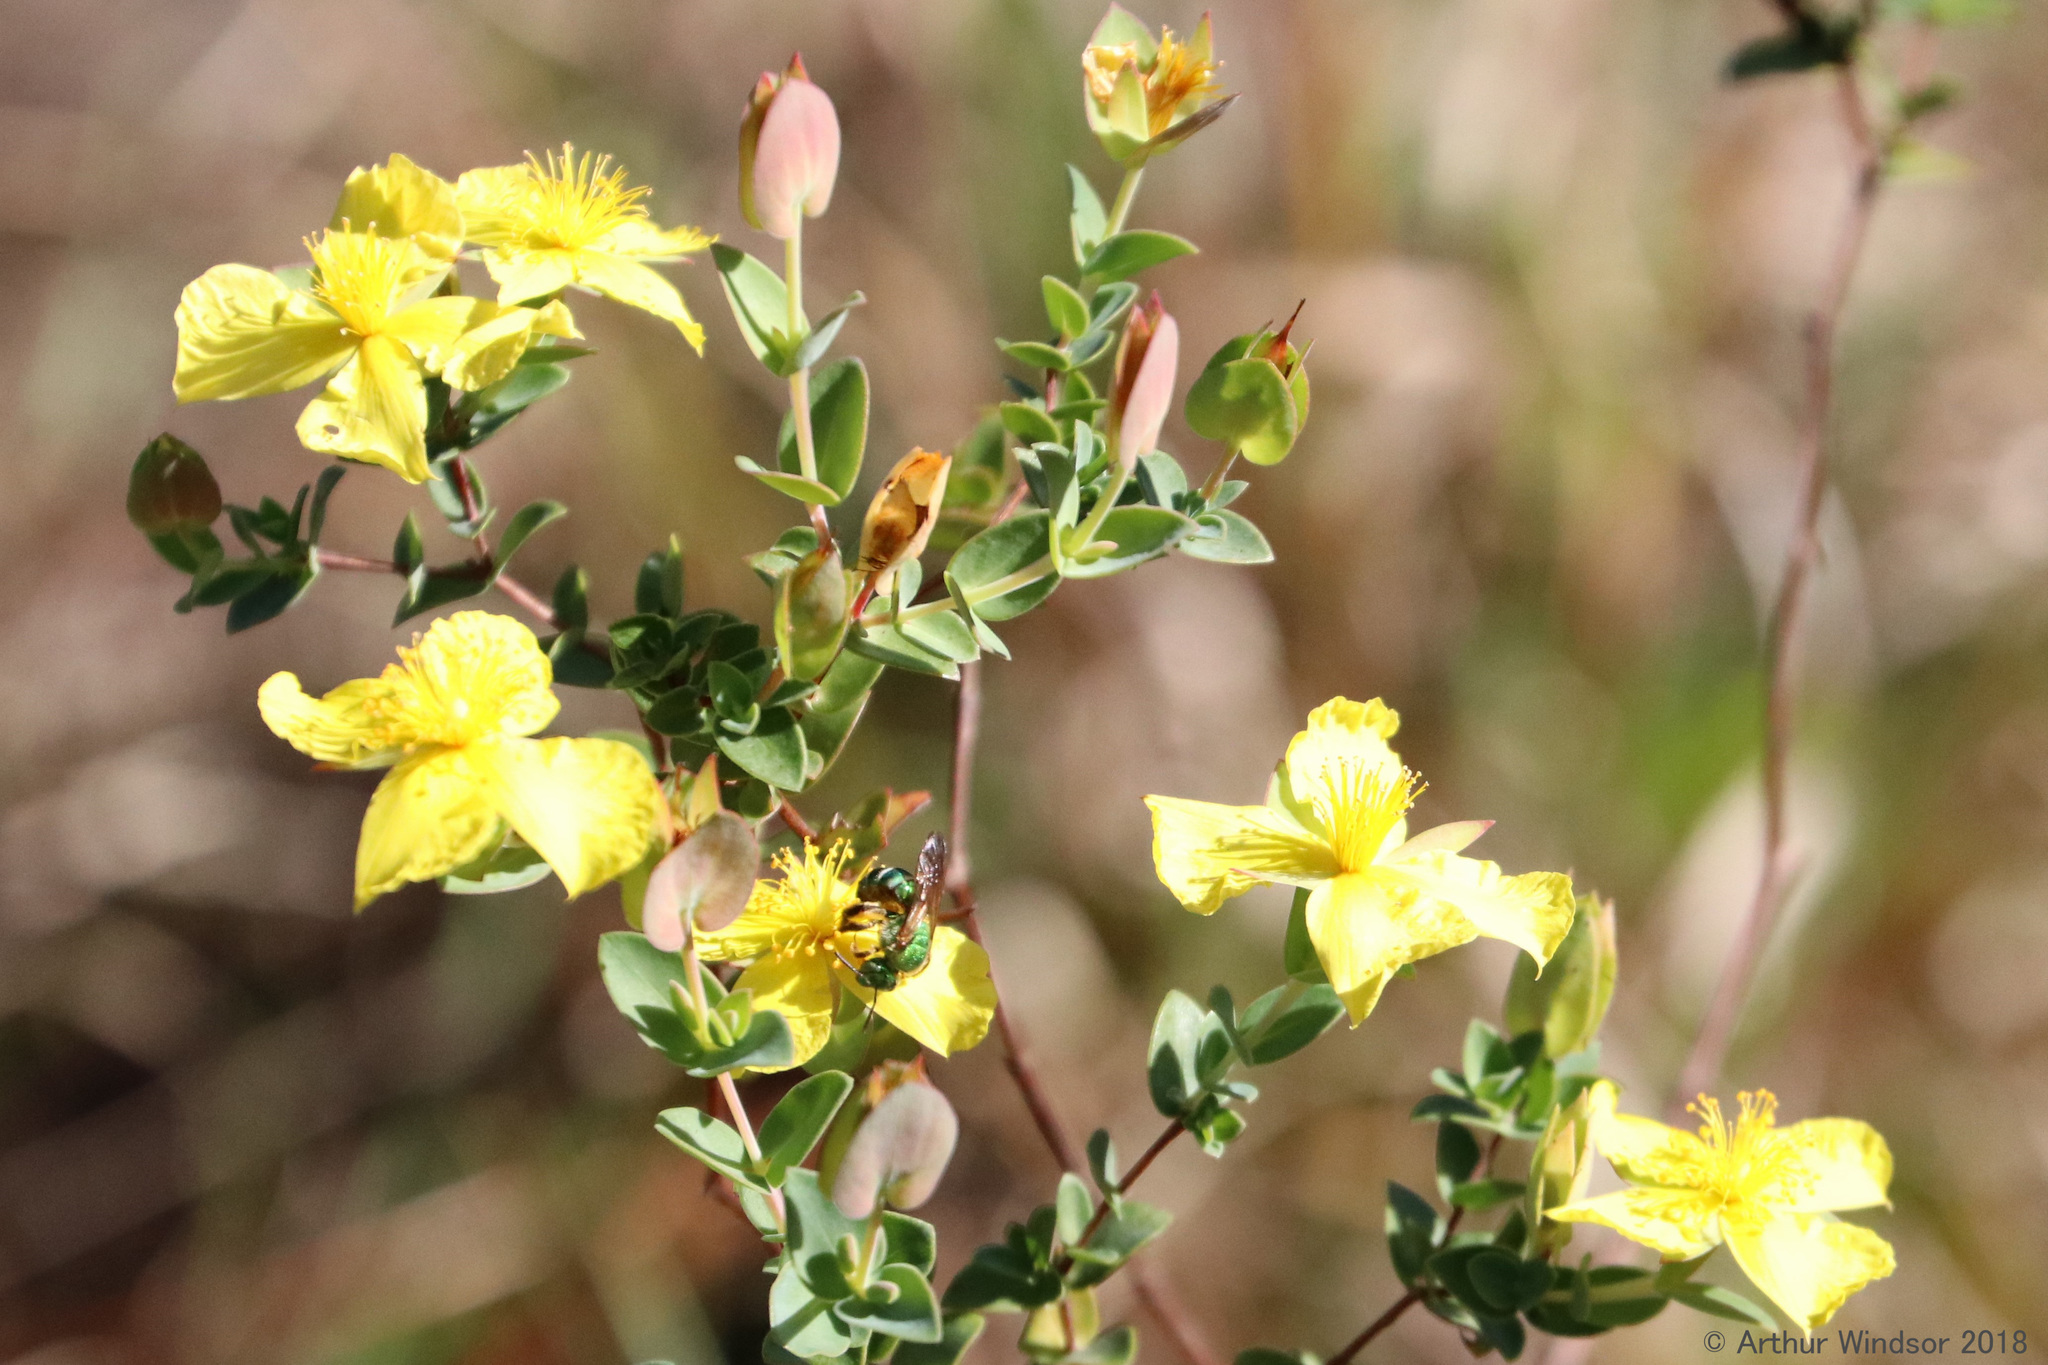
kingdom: Animalia
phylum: Arthropoda
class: Insecta
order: Hymenoptera
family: Halictidae
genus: Agapostemon
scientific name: Agapostemon splendens
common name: Brown-winged striped sweat bee
